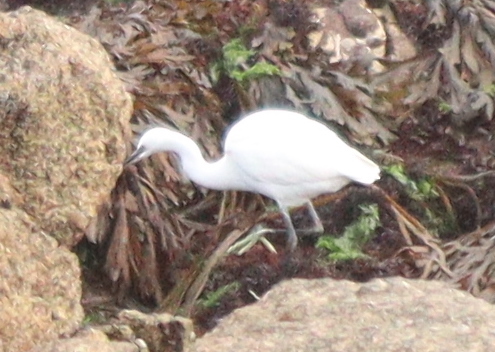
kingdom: Animalia
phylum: Chordata
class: Aves
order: Pelecaniformes
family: Ardeidae
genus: Egretta
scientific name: Egretta garzetta
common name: Little egret
